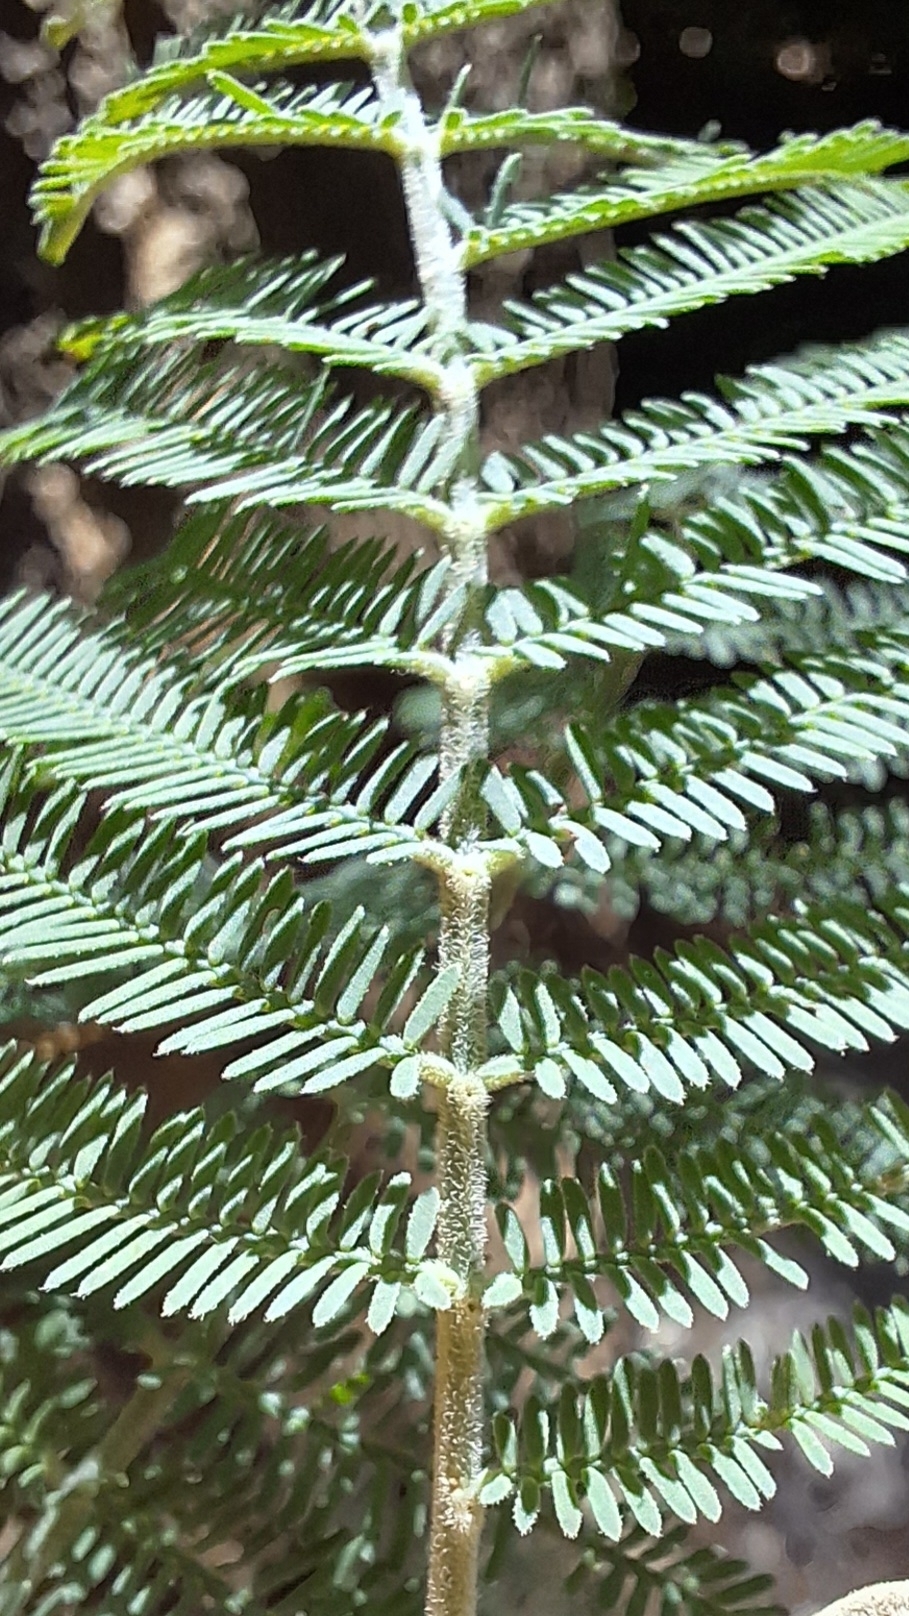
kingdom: Plantae
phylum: Tracheophyta
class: Magnoliopsida
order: Fabales
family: Fabaceae
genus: Acacia
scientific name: Acacia dealbata
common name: Silver wattle
